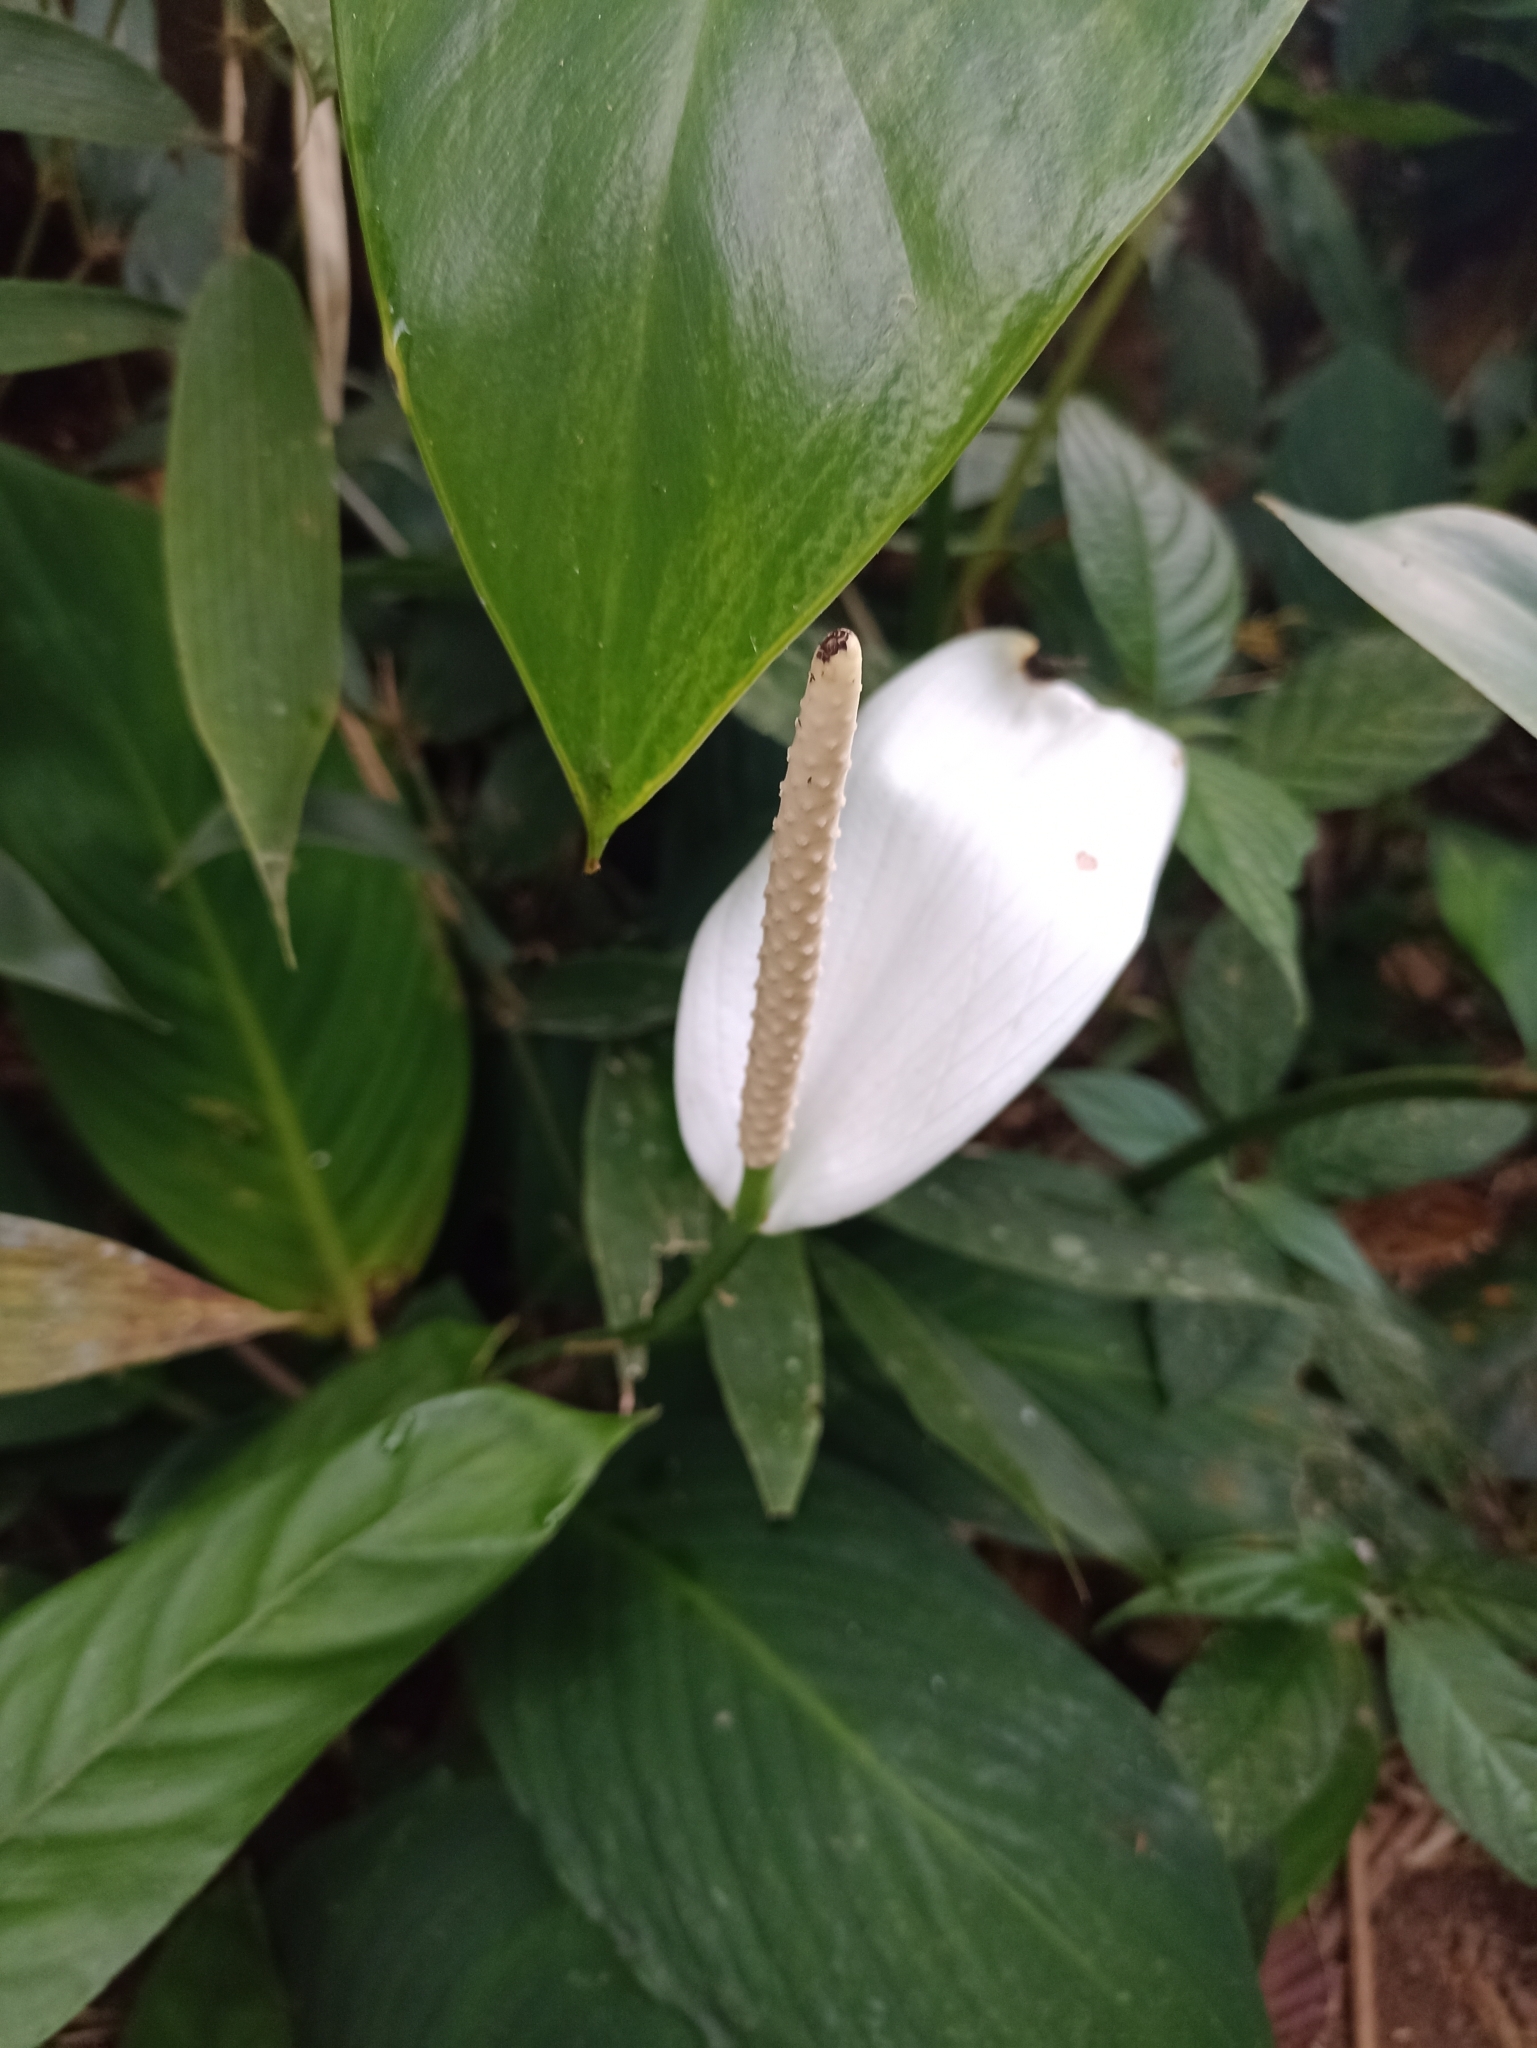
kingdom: Plantae
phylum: Tracheophyta
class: Liliopsida
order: Alismatales
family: Araceae
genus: Spathiphyllum
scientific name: Spathiphyllum cannifolium
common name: Spatheflower
